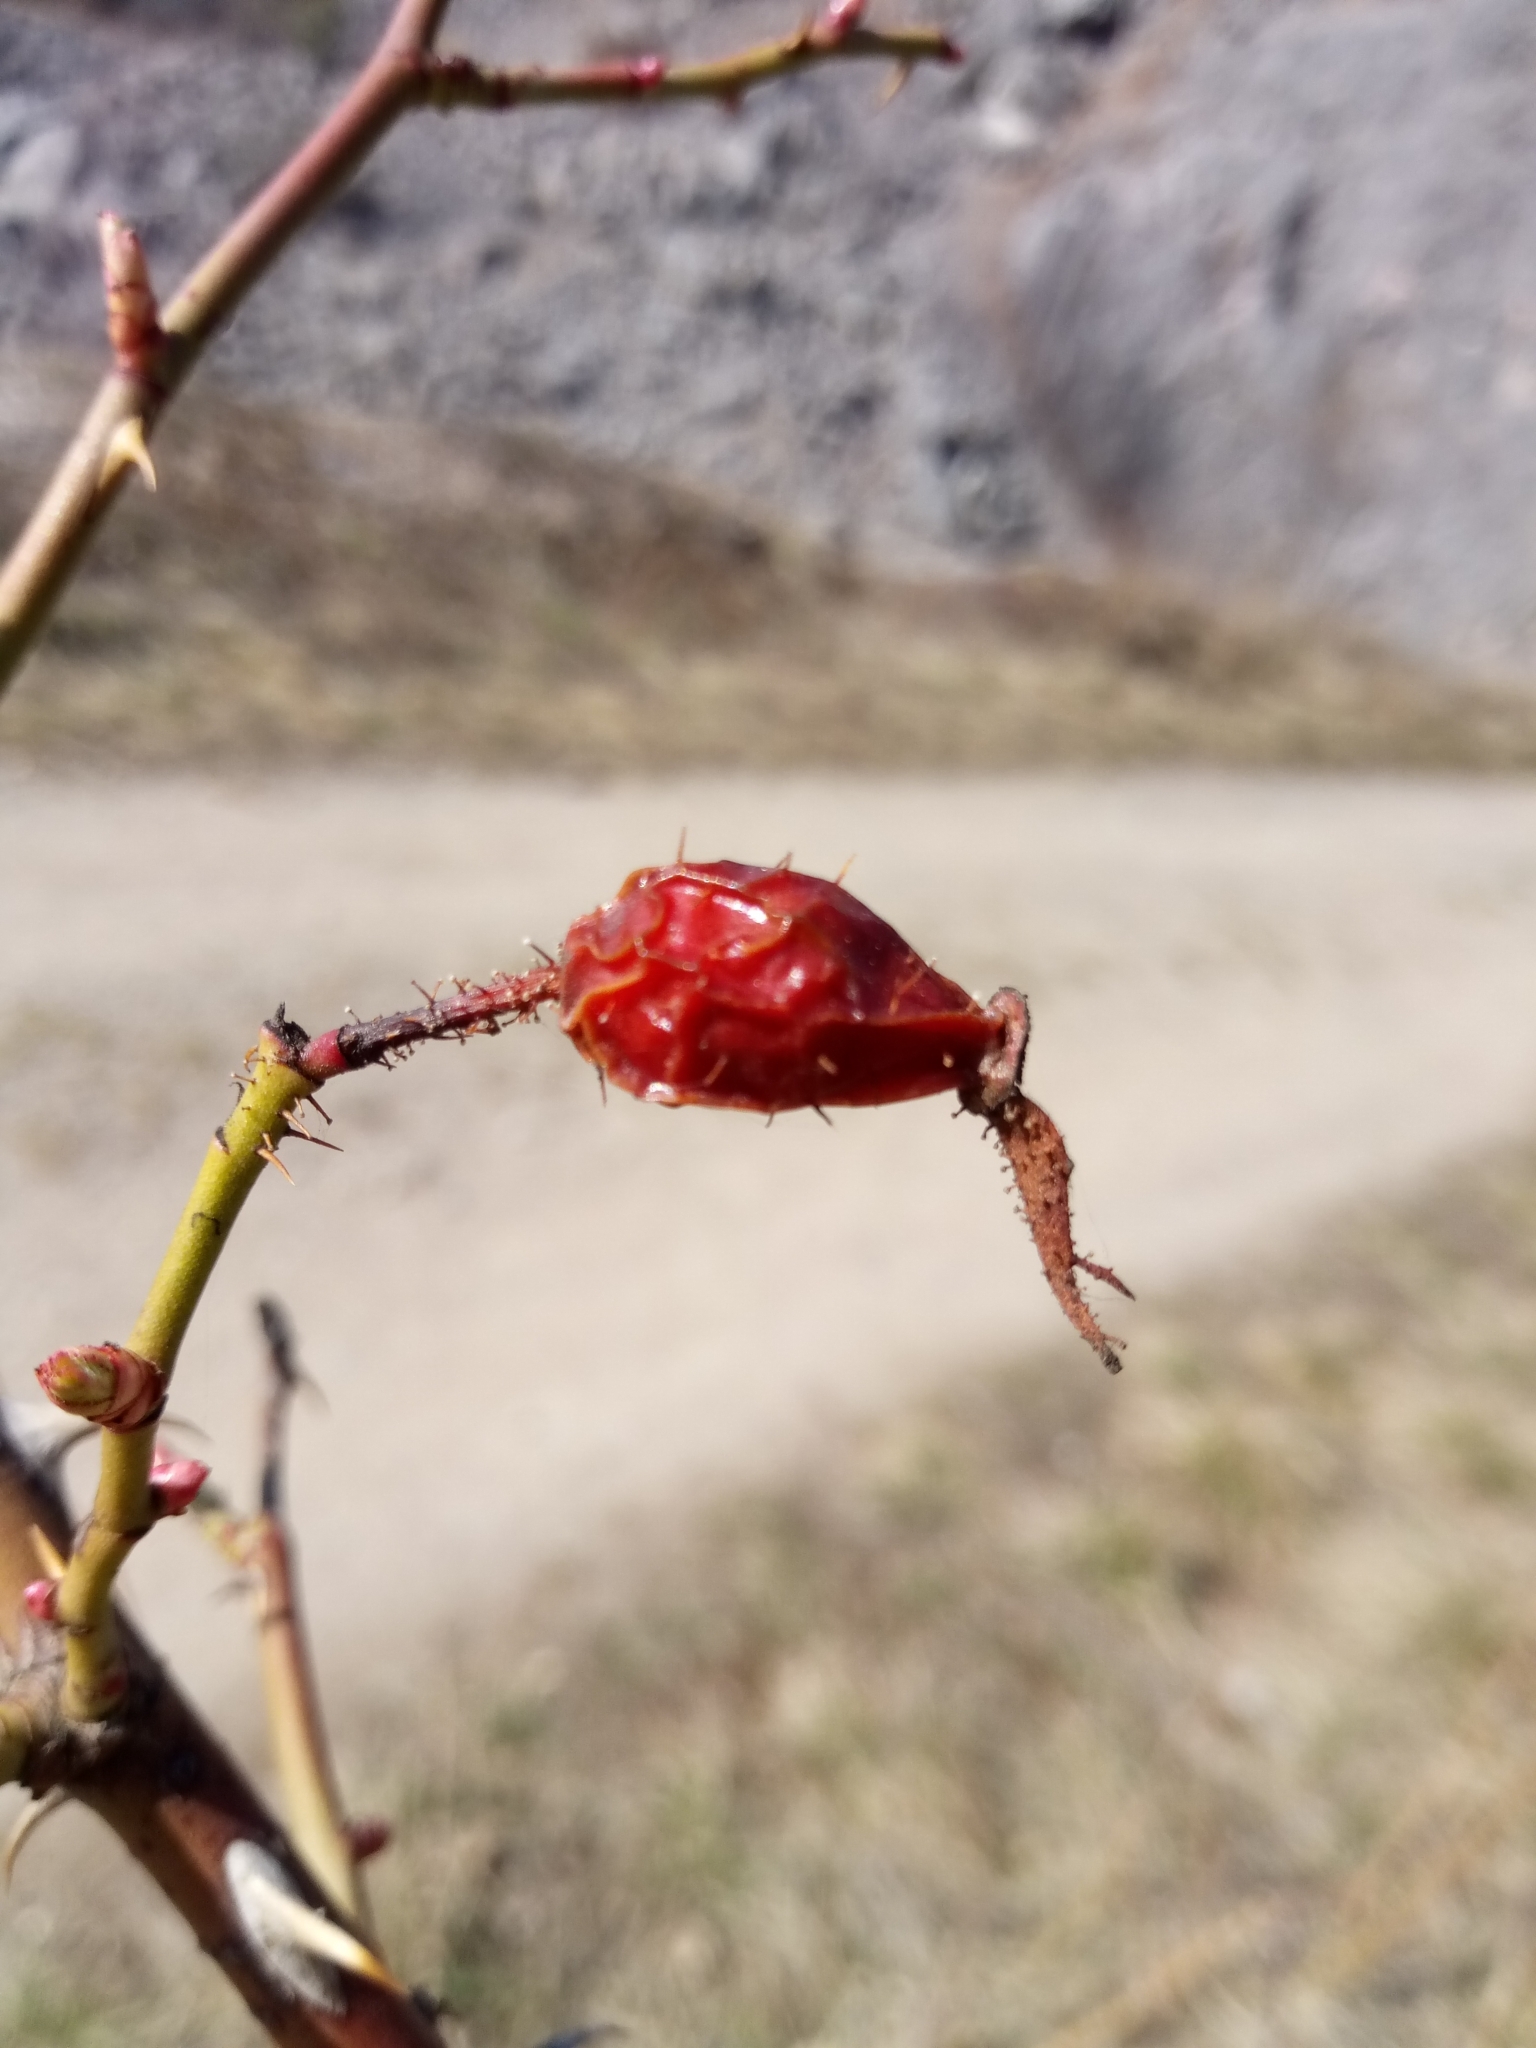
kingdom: Plantae
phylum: Tracheophyta
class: Magnoliopsida
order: Rosales
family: Rosaceae
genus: Rosa
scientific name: Rosa rubiginosa
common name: Sweet-briar
